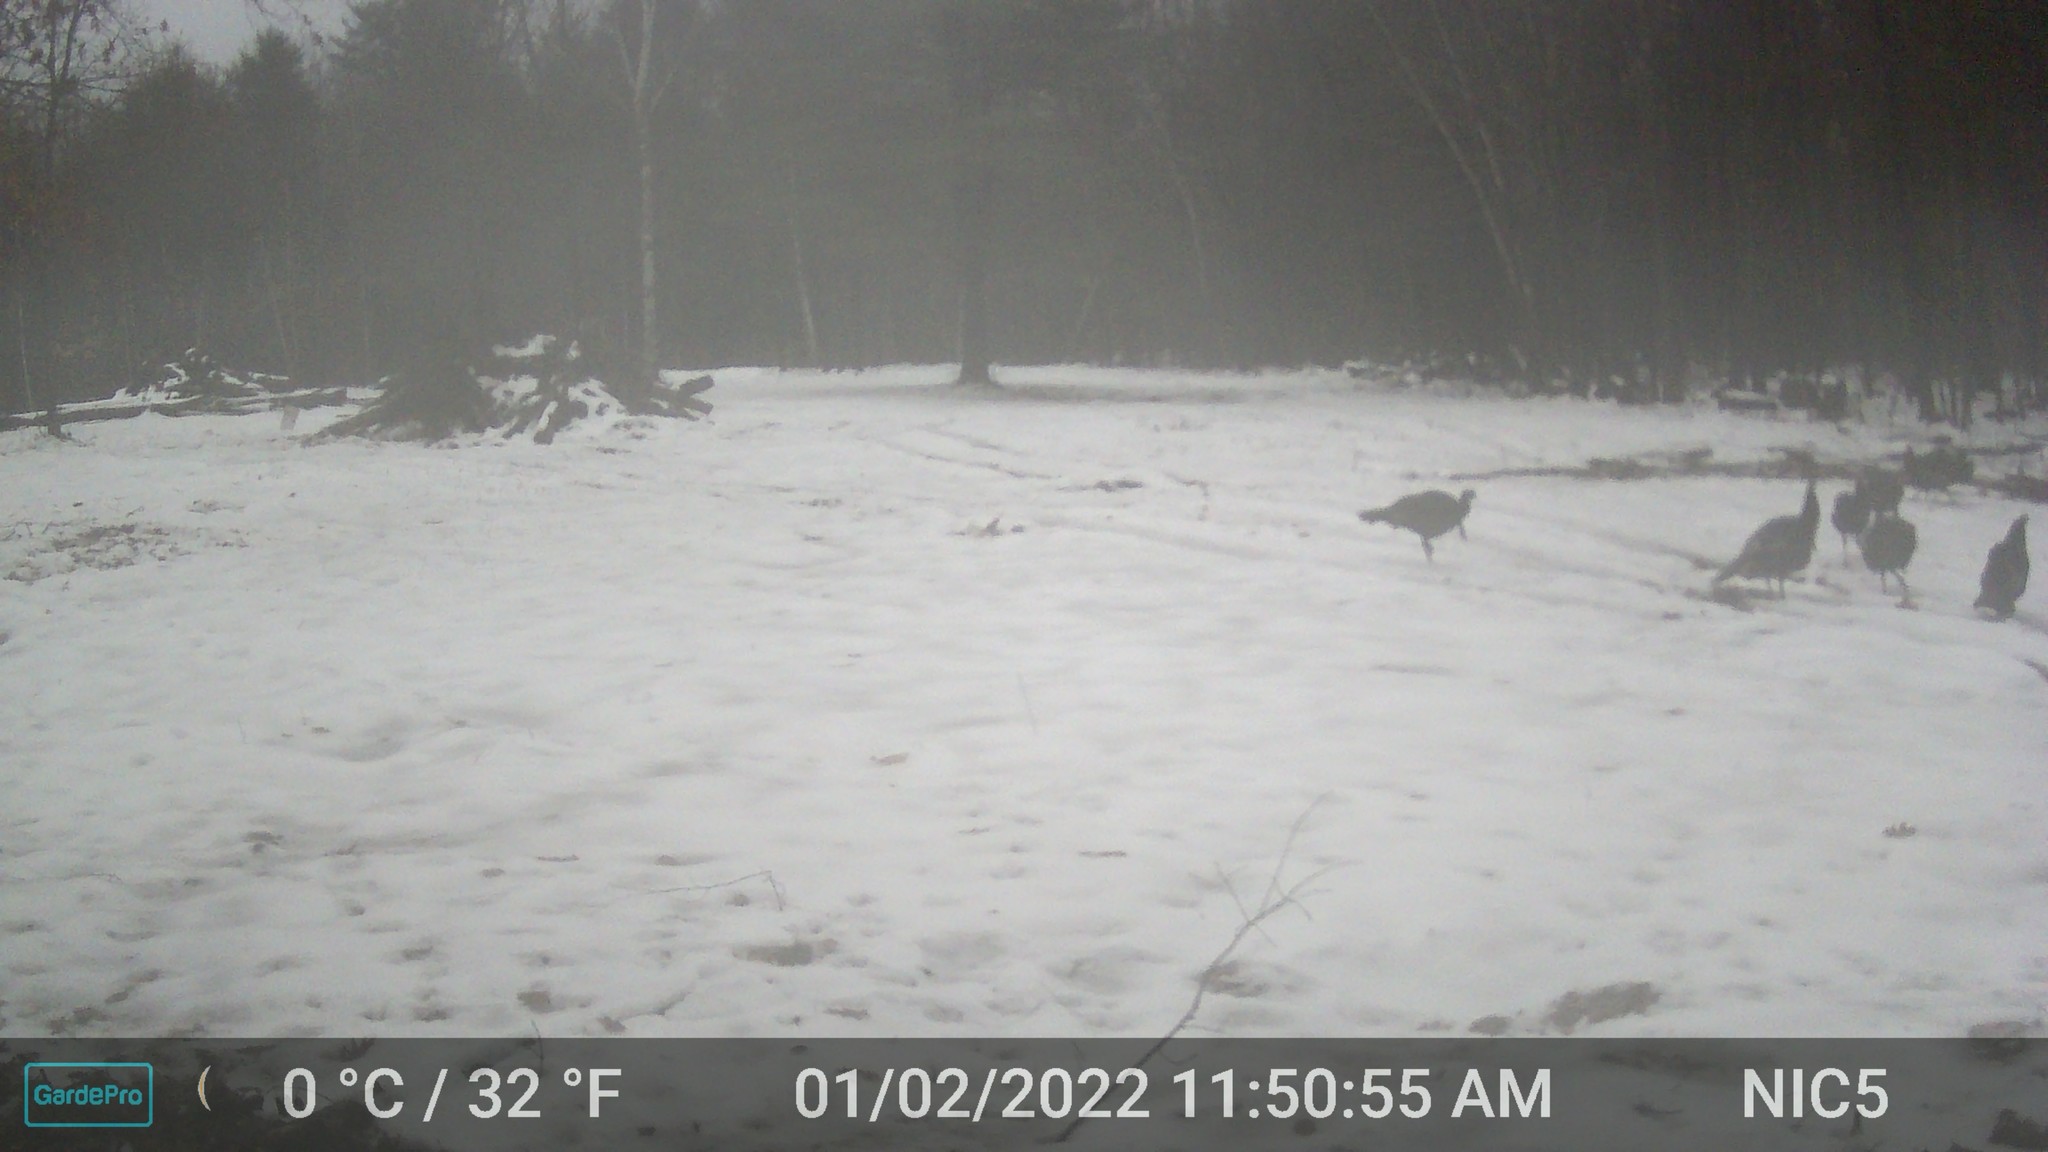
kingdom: Animalia
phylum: Chordata
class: Aves
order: Galliformes
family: Phasianidae
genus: Meleagris
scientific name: Meleagris gallopavo
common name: Wild turkey
